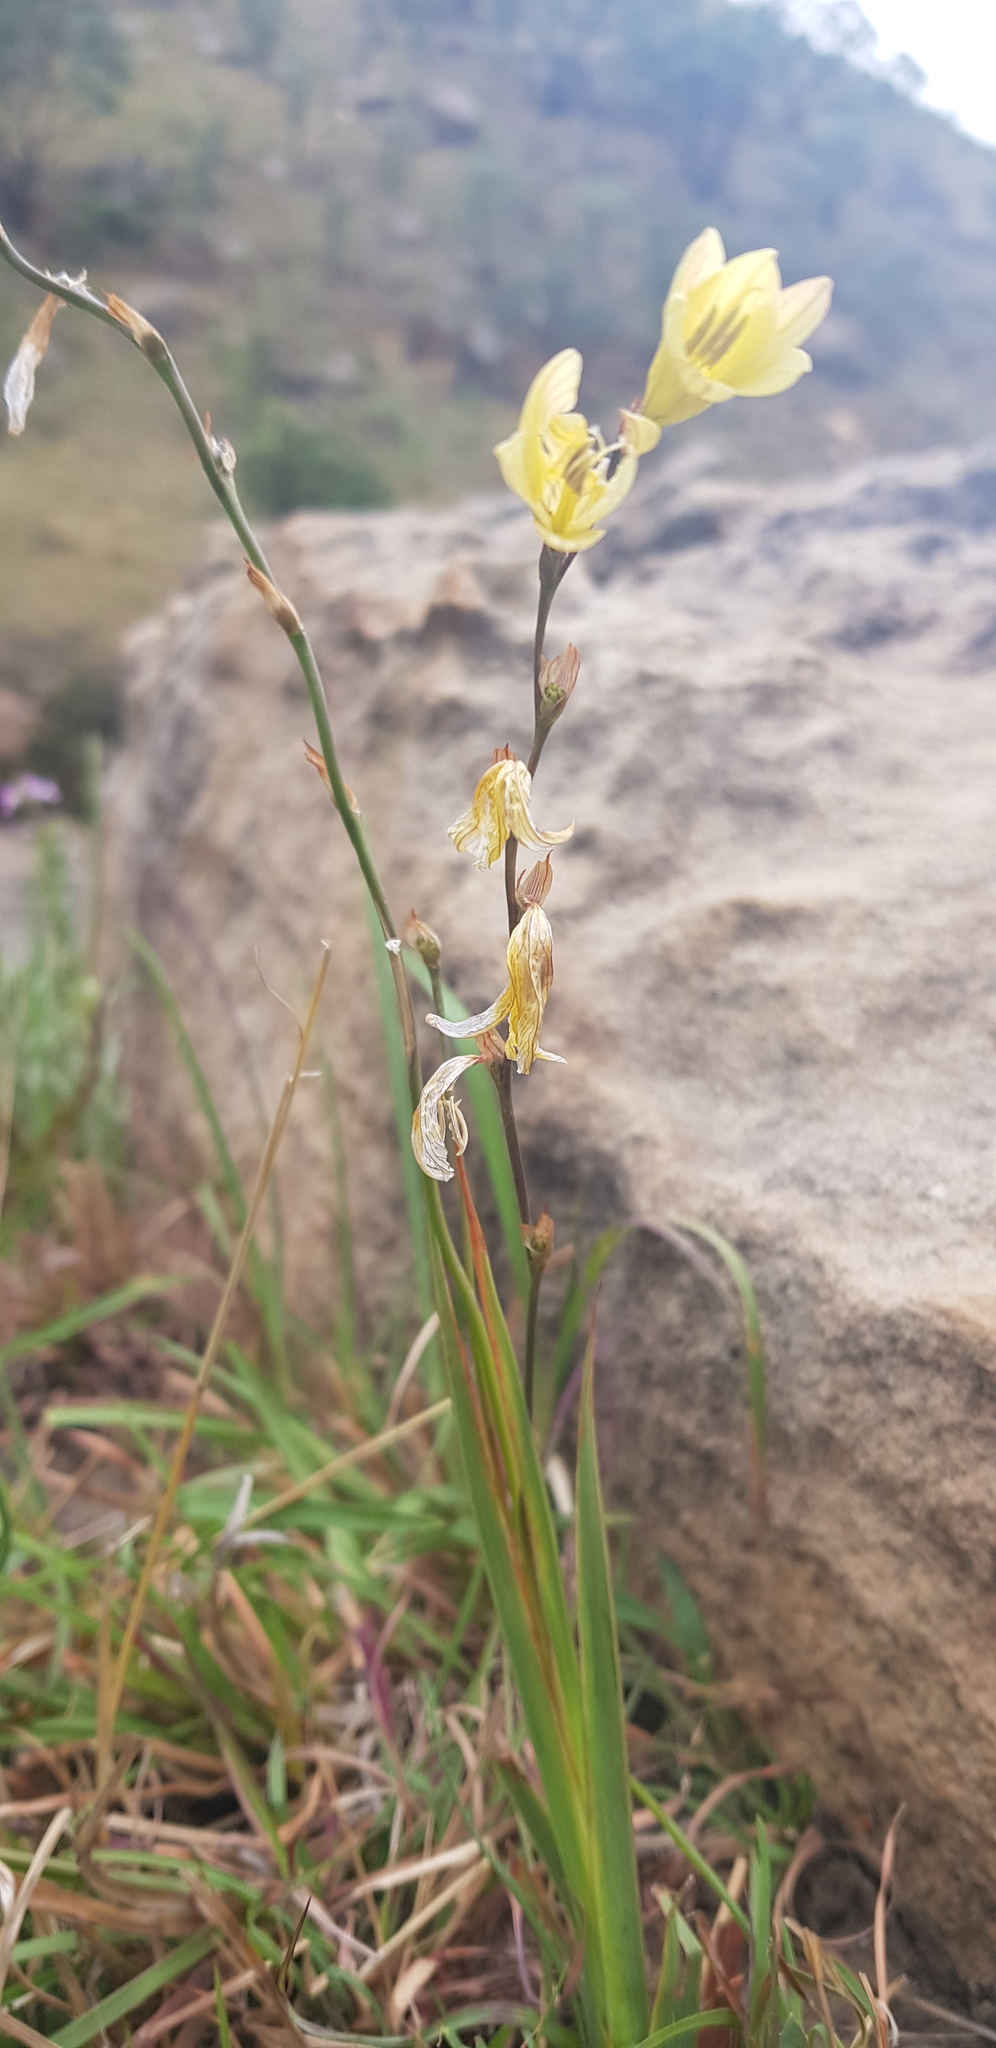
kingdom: Plantae
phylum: Tracheophyta
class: Liliopsida
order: Asparagales
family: Iridaceae
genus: Tritonia
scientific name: Tritonia gladiolaris
